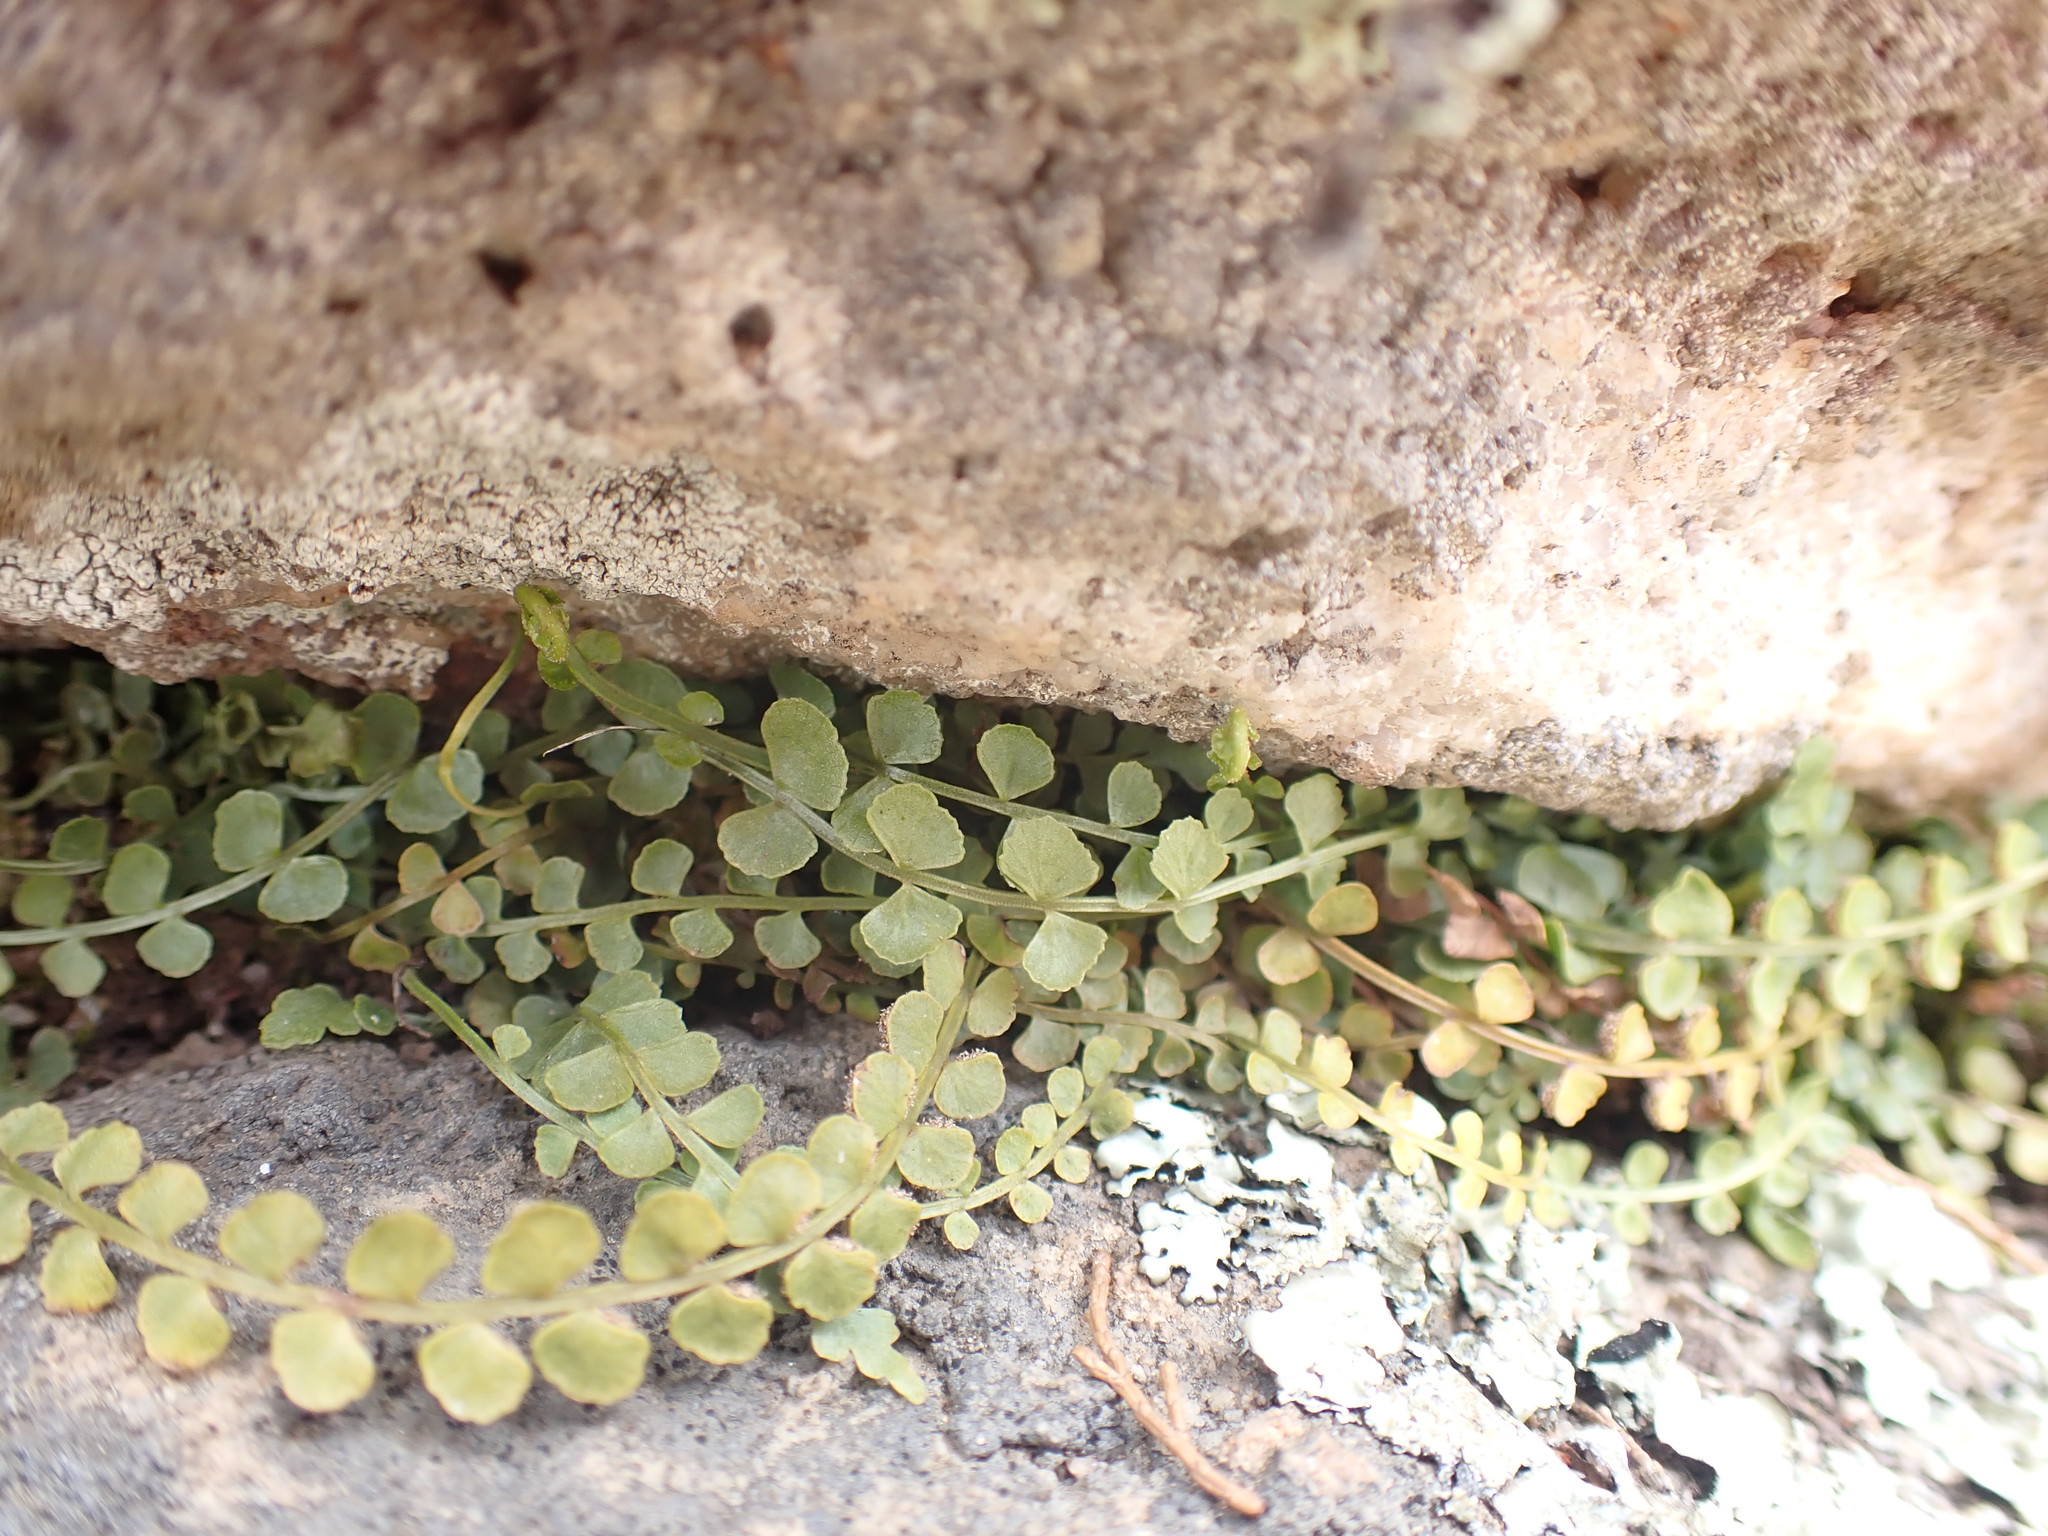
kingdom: Plantae
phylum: Tracheophyta
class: Polypodiopsida
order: Polypodiales
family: Aspleniaceae
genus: Asplenium
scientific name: Asplenium flabellifolium
